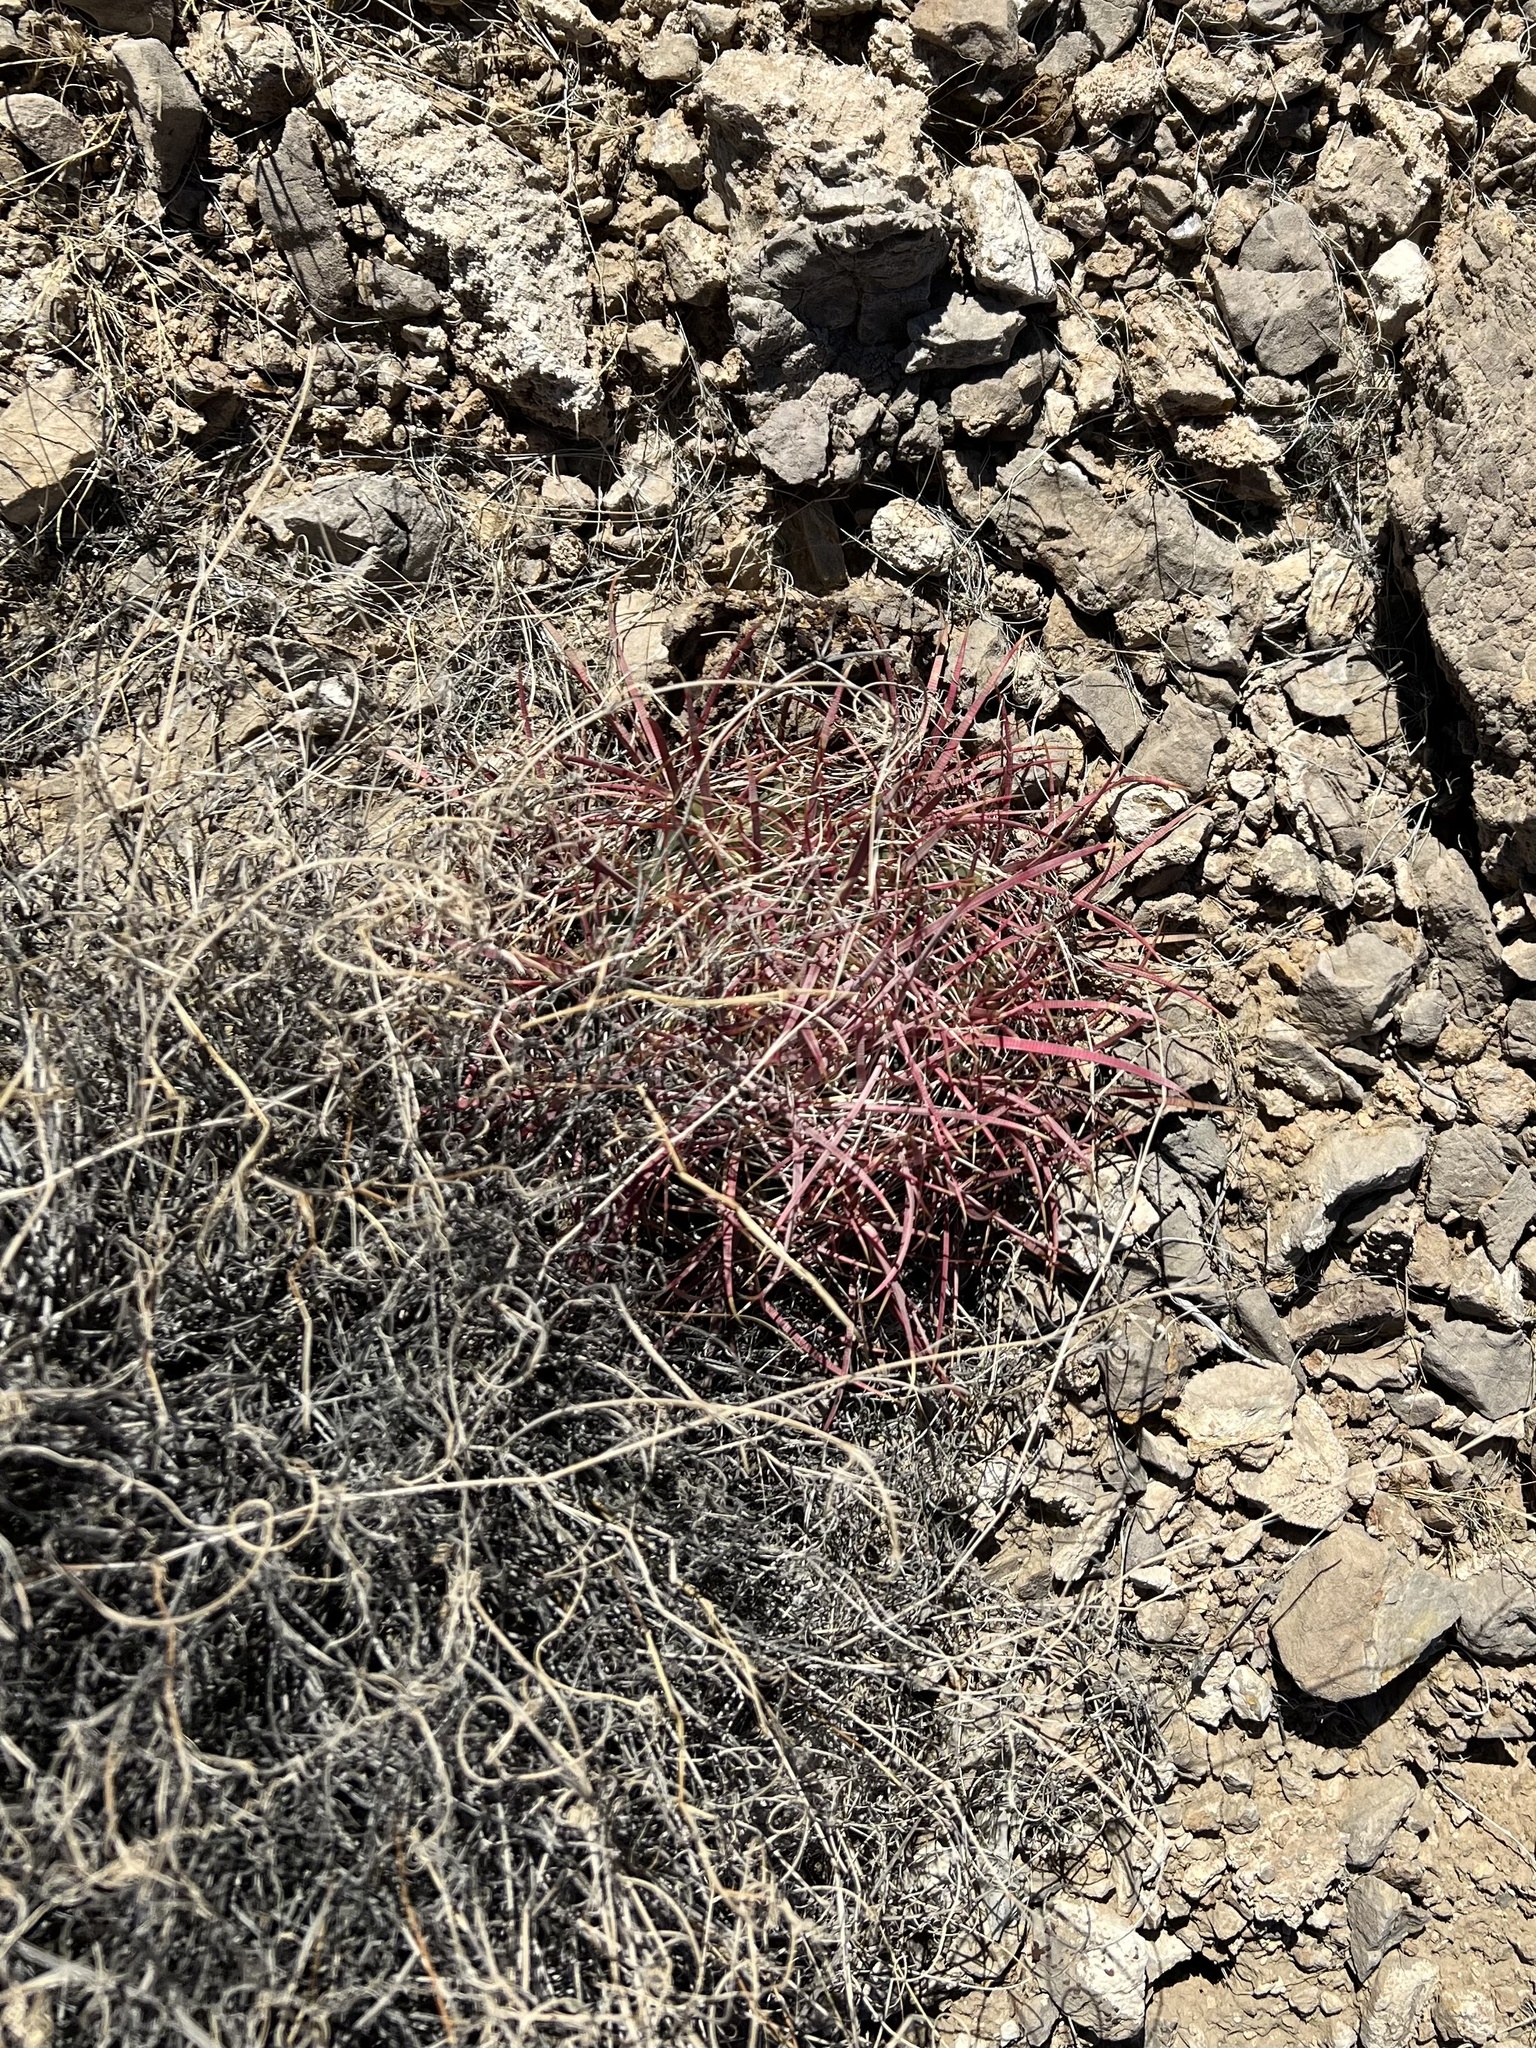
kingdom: Plantae
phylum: Tracheophyta
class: Magnoliopsida
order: Caryophyllales
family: Cactaceae
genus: Ferocactus
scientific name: Ferocactus cylindraceus
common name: California barrel cactus
